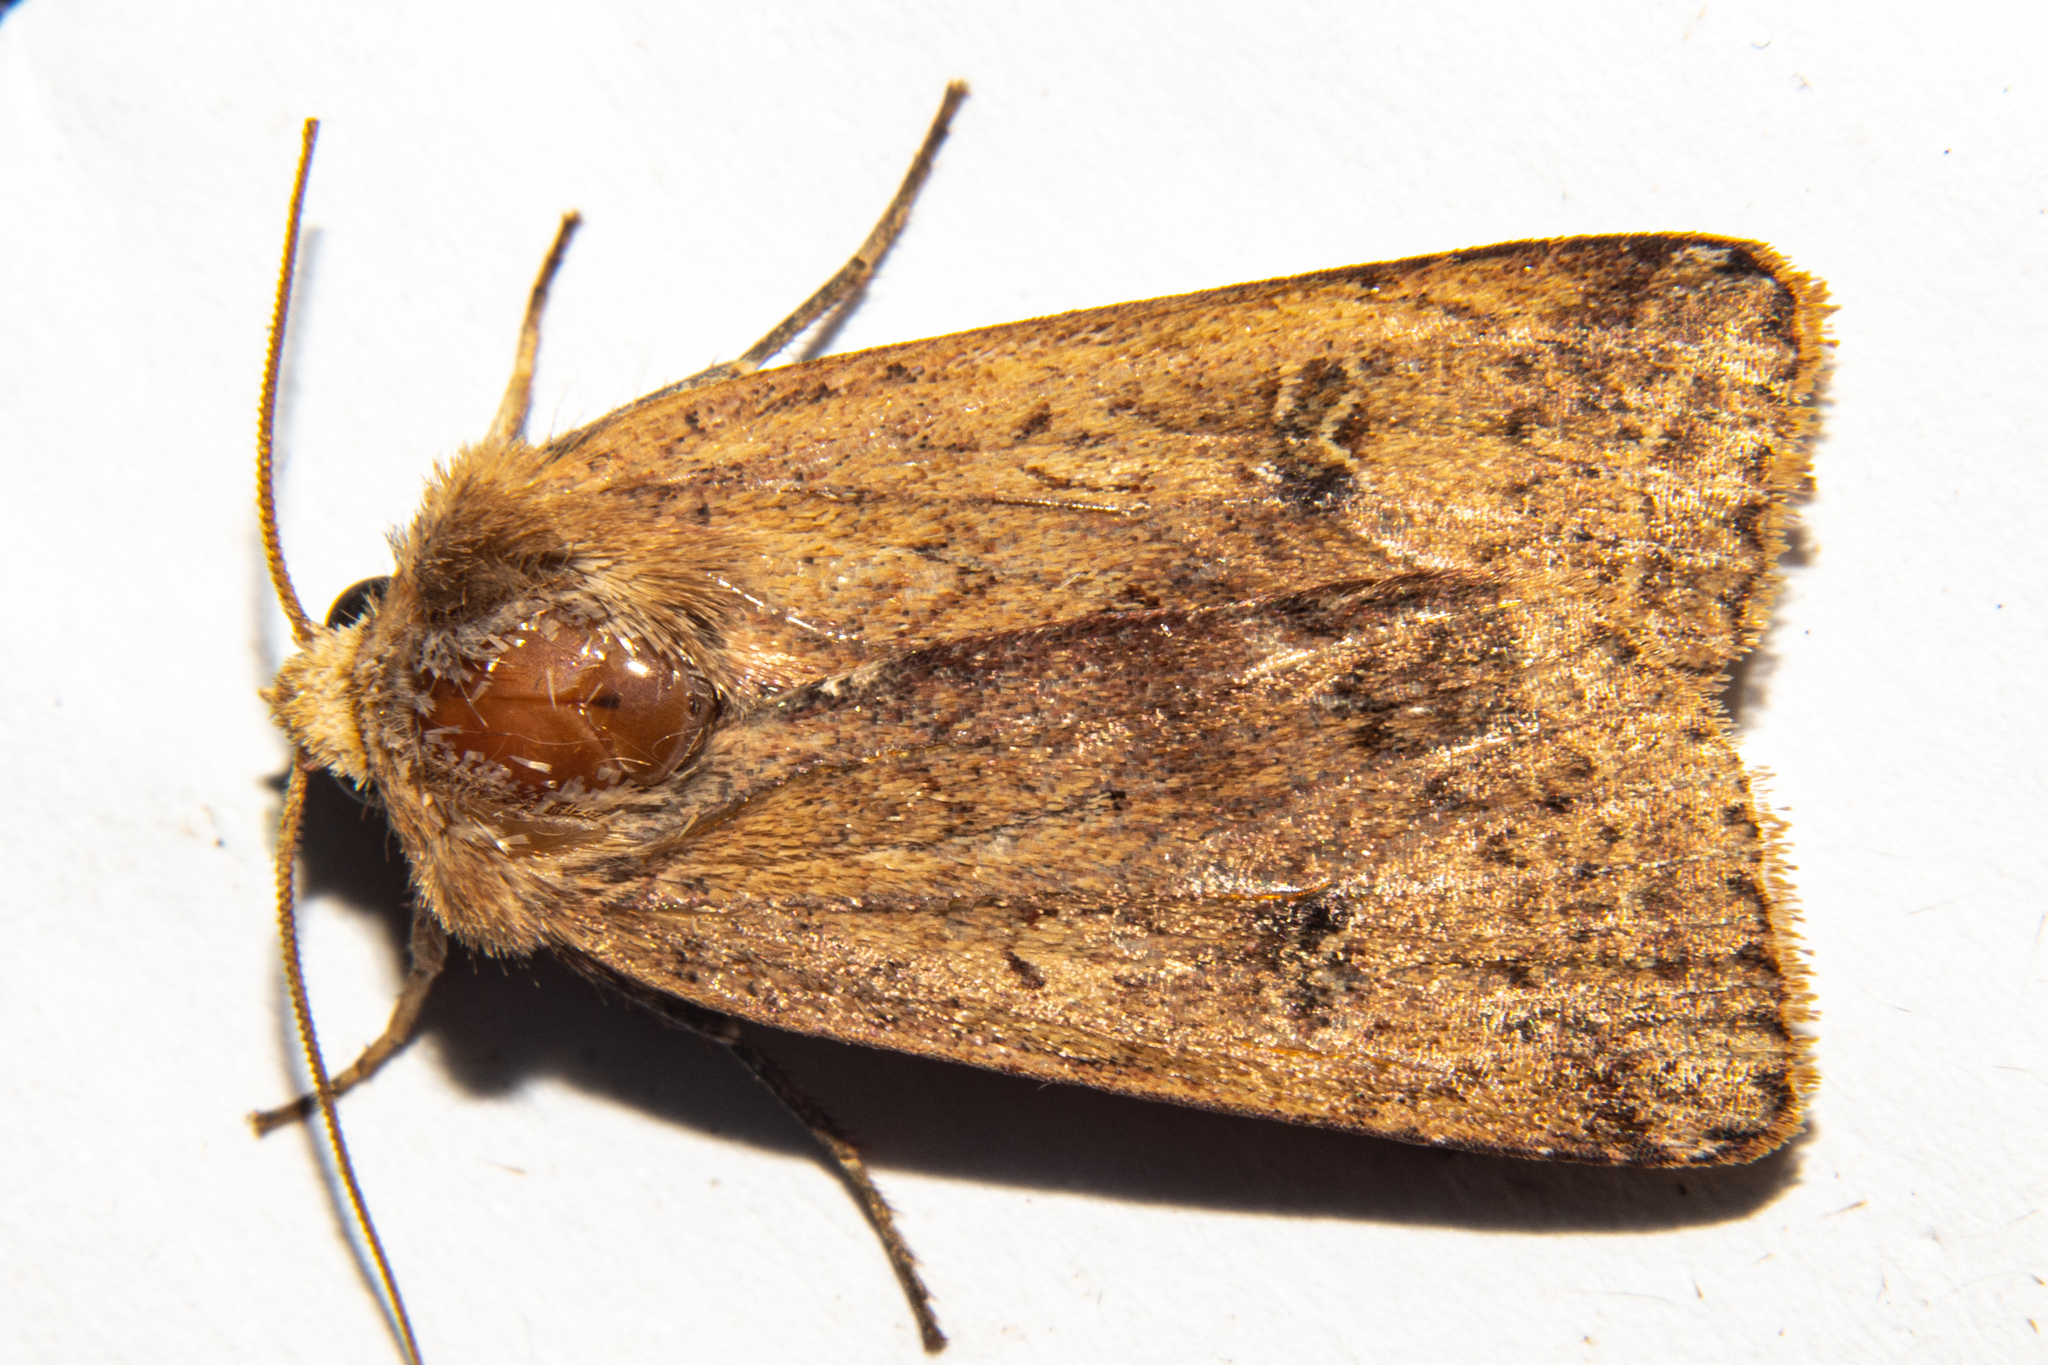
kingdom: Animalia
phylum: Arthropoda
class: Insecta
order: Lepidoptera
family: Noctuidae
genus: Diarsia
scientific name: Diarsia intermixta
